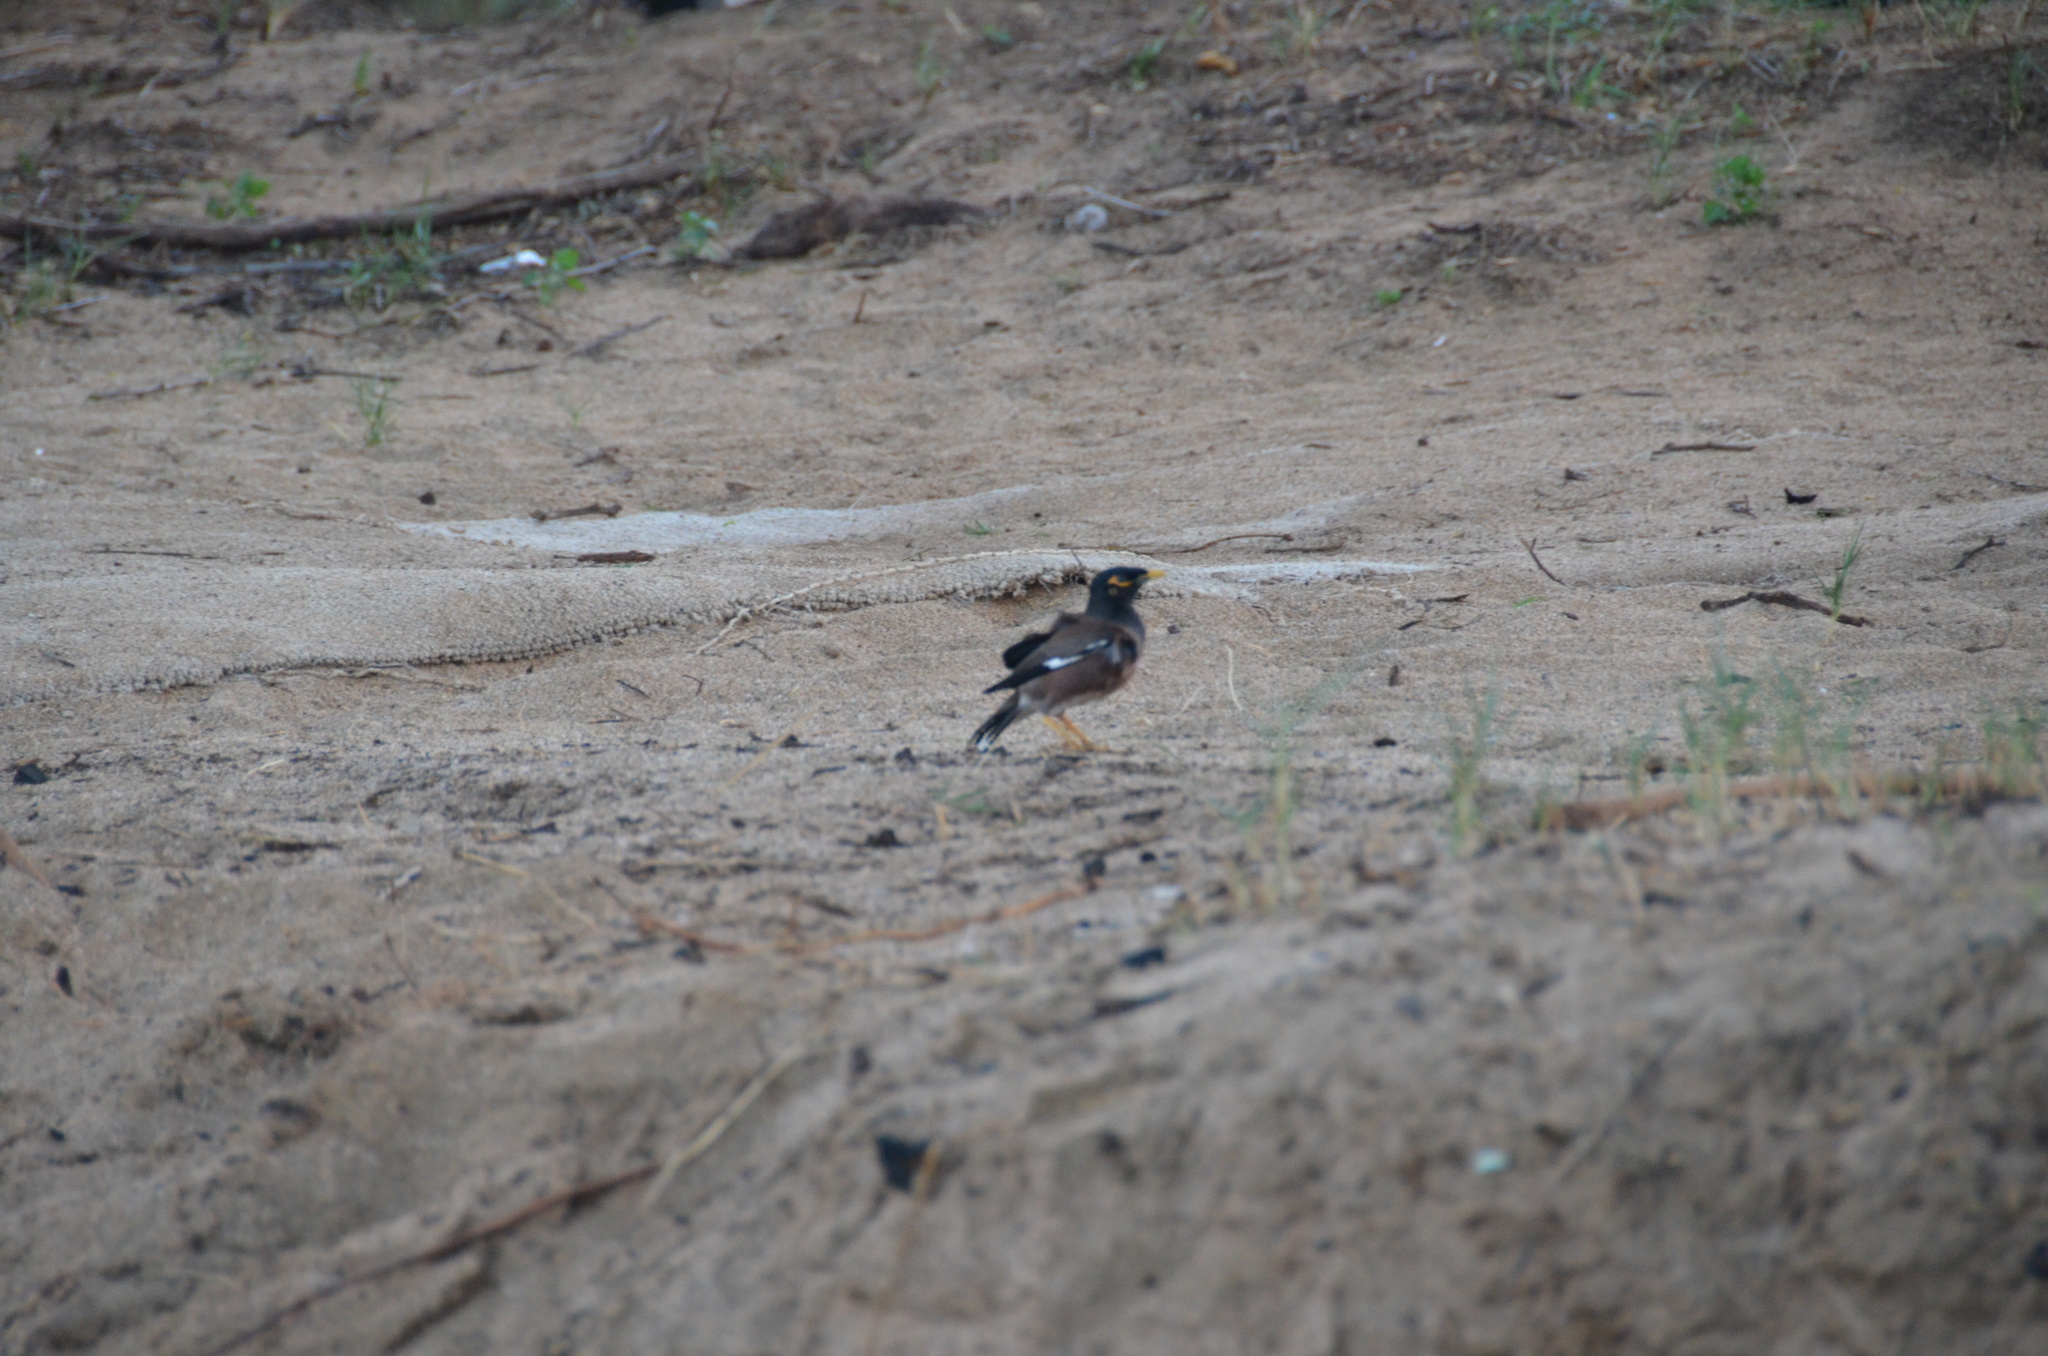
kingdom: Animalia
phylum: Chordata
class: Aves
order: Passeriformes
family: Sturnidae
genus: Acridotheres
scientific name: Acridotheres tristis
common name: Common myna
